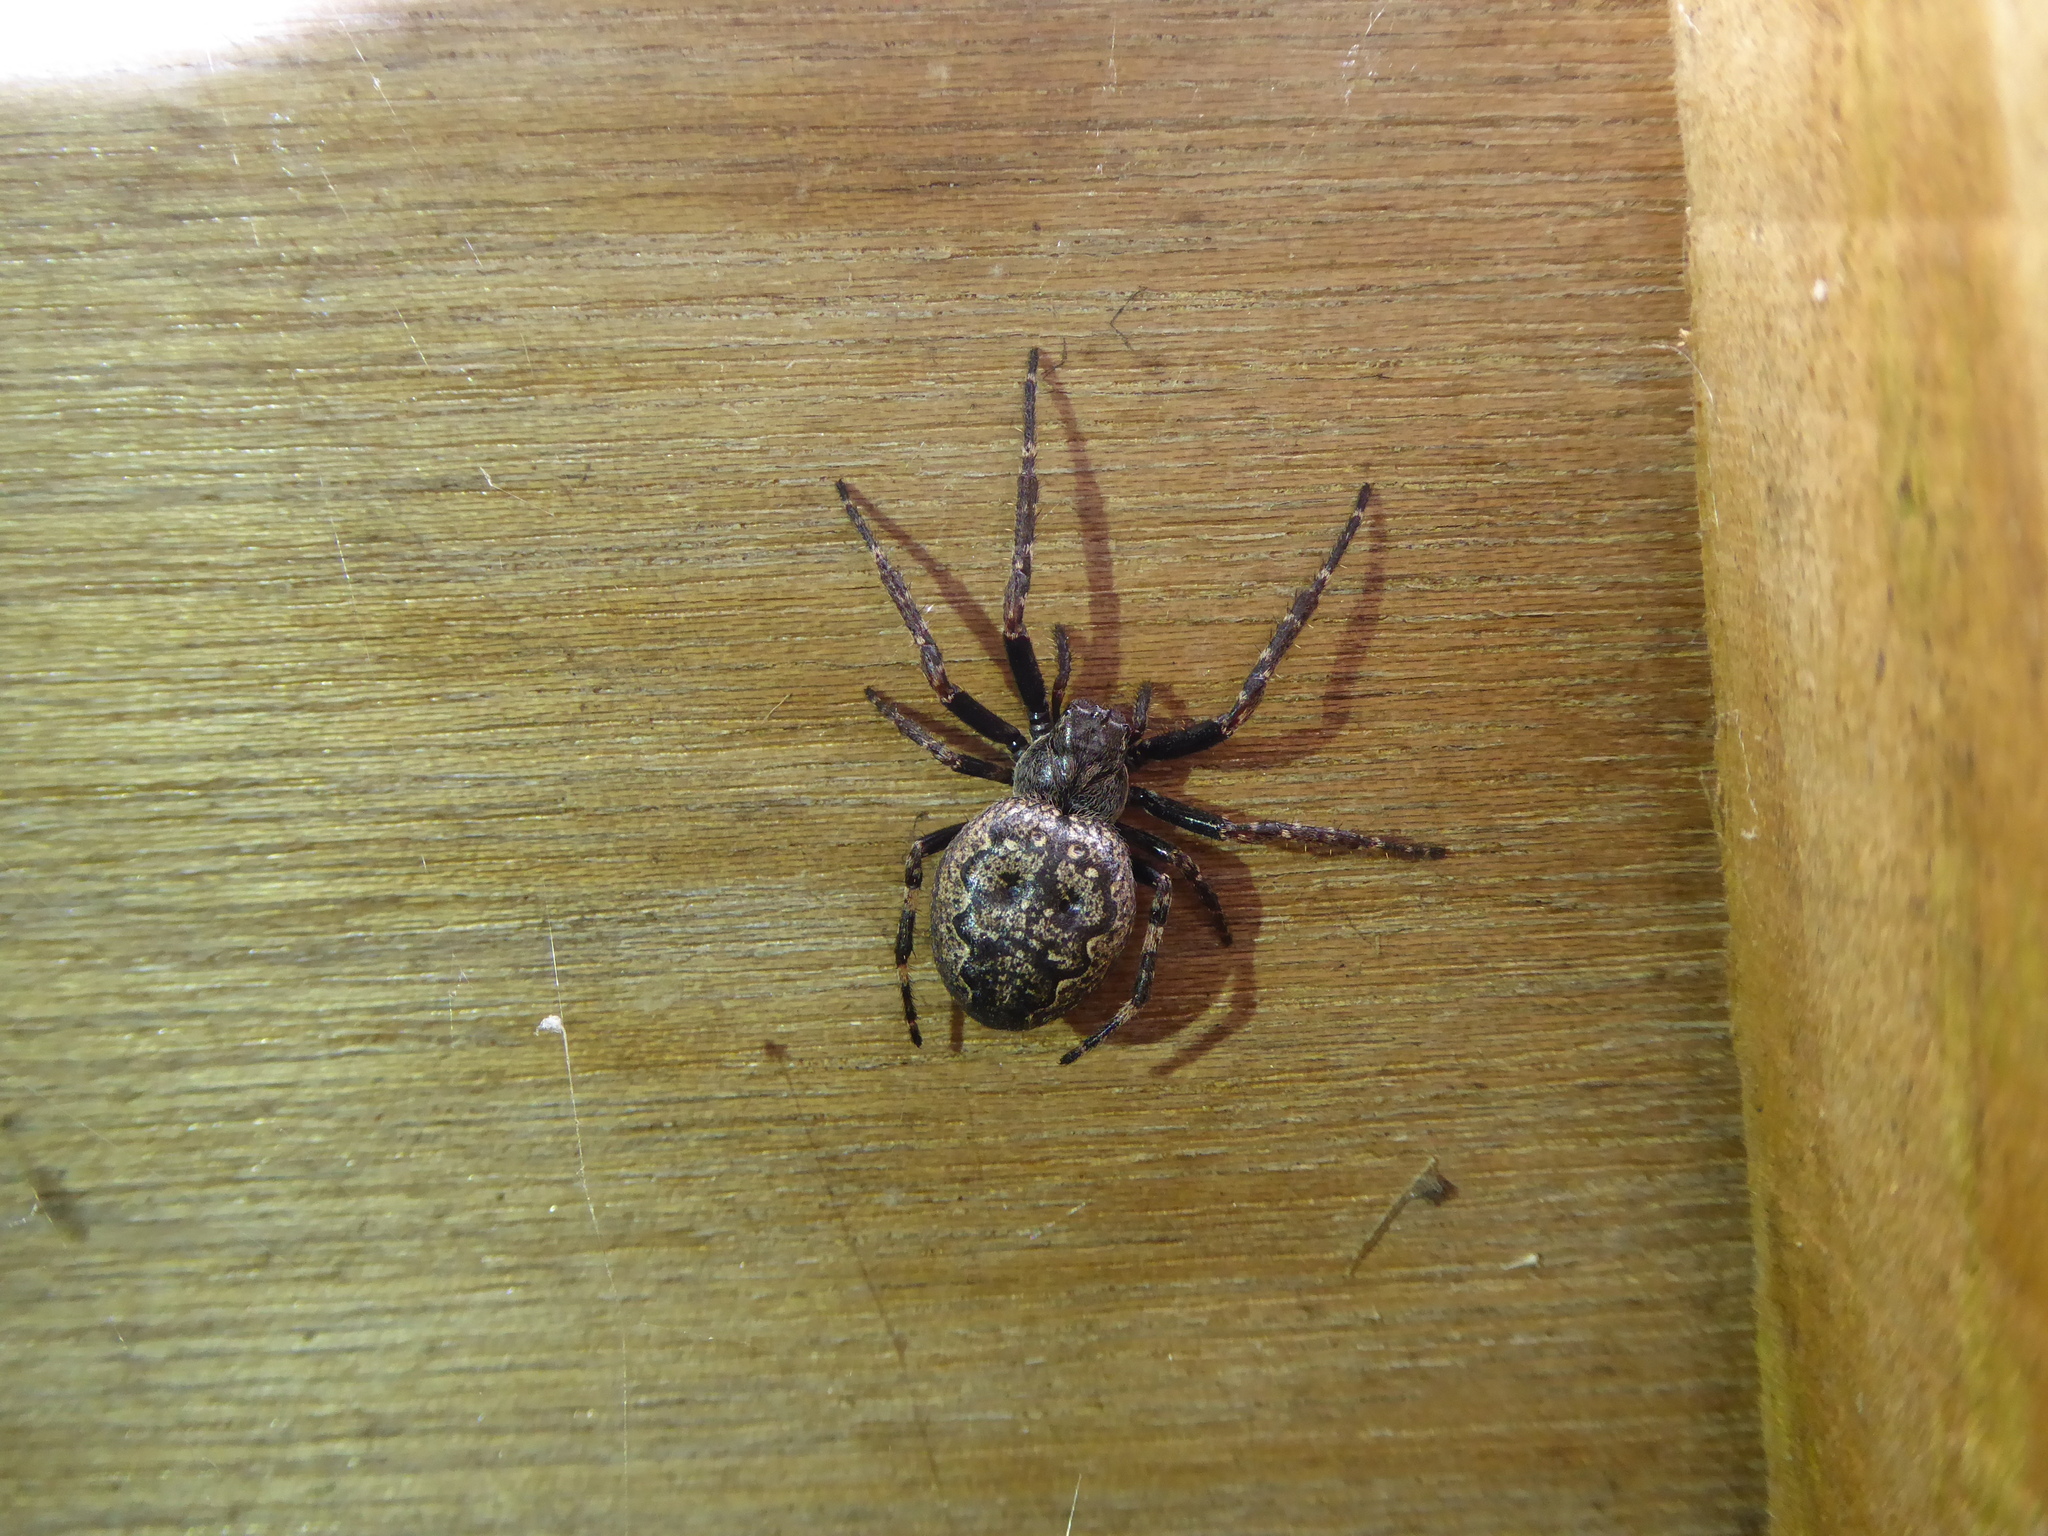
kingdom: Animalia
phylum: Arthropoda
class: Arachnida
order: Araneae
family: Araneidae
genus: Nuctenea
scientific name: Nuctenea umbratica
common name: Toad spider
